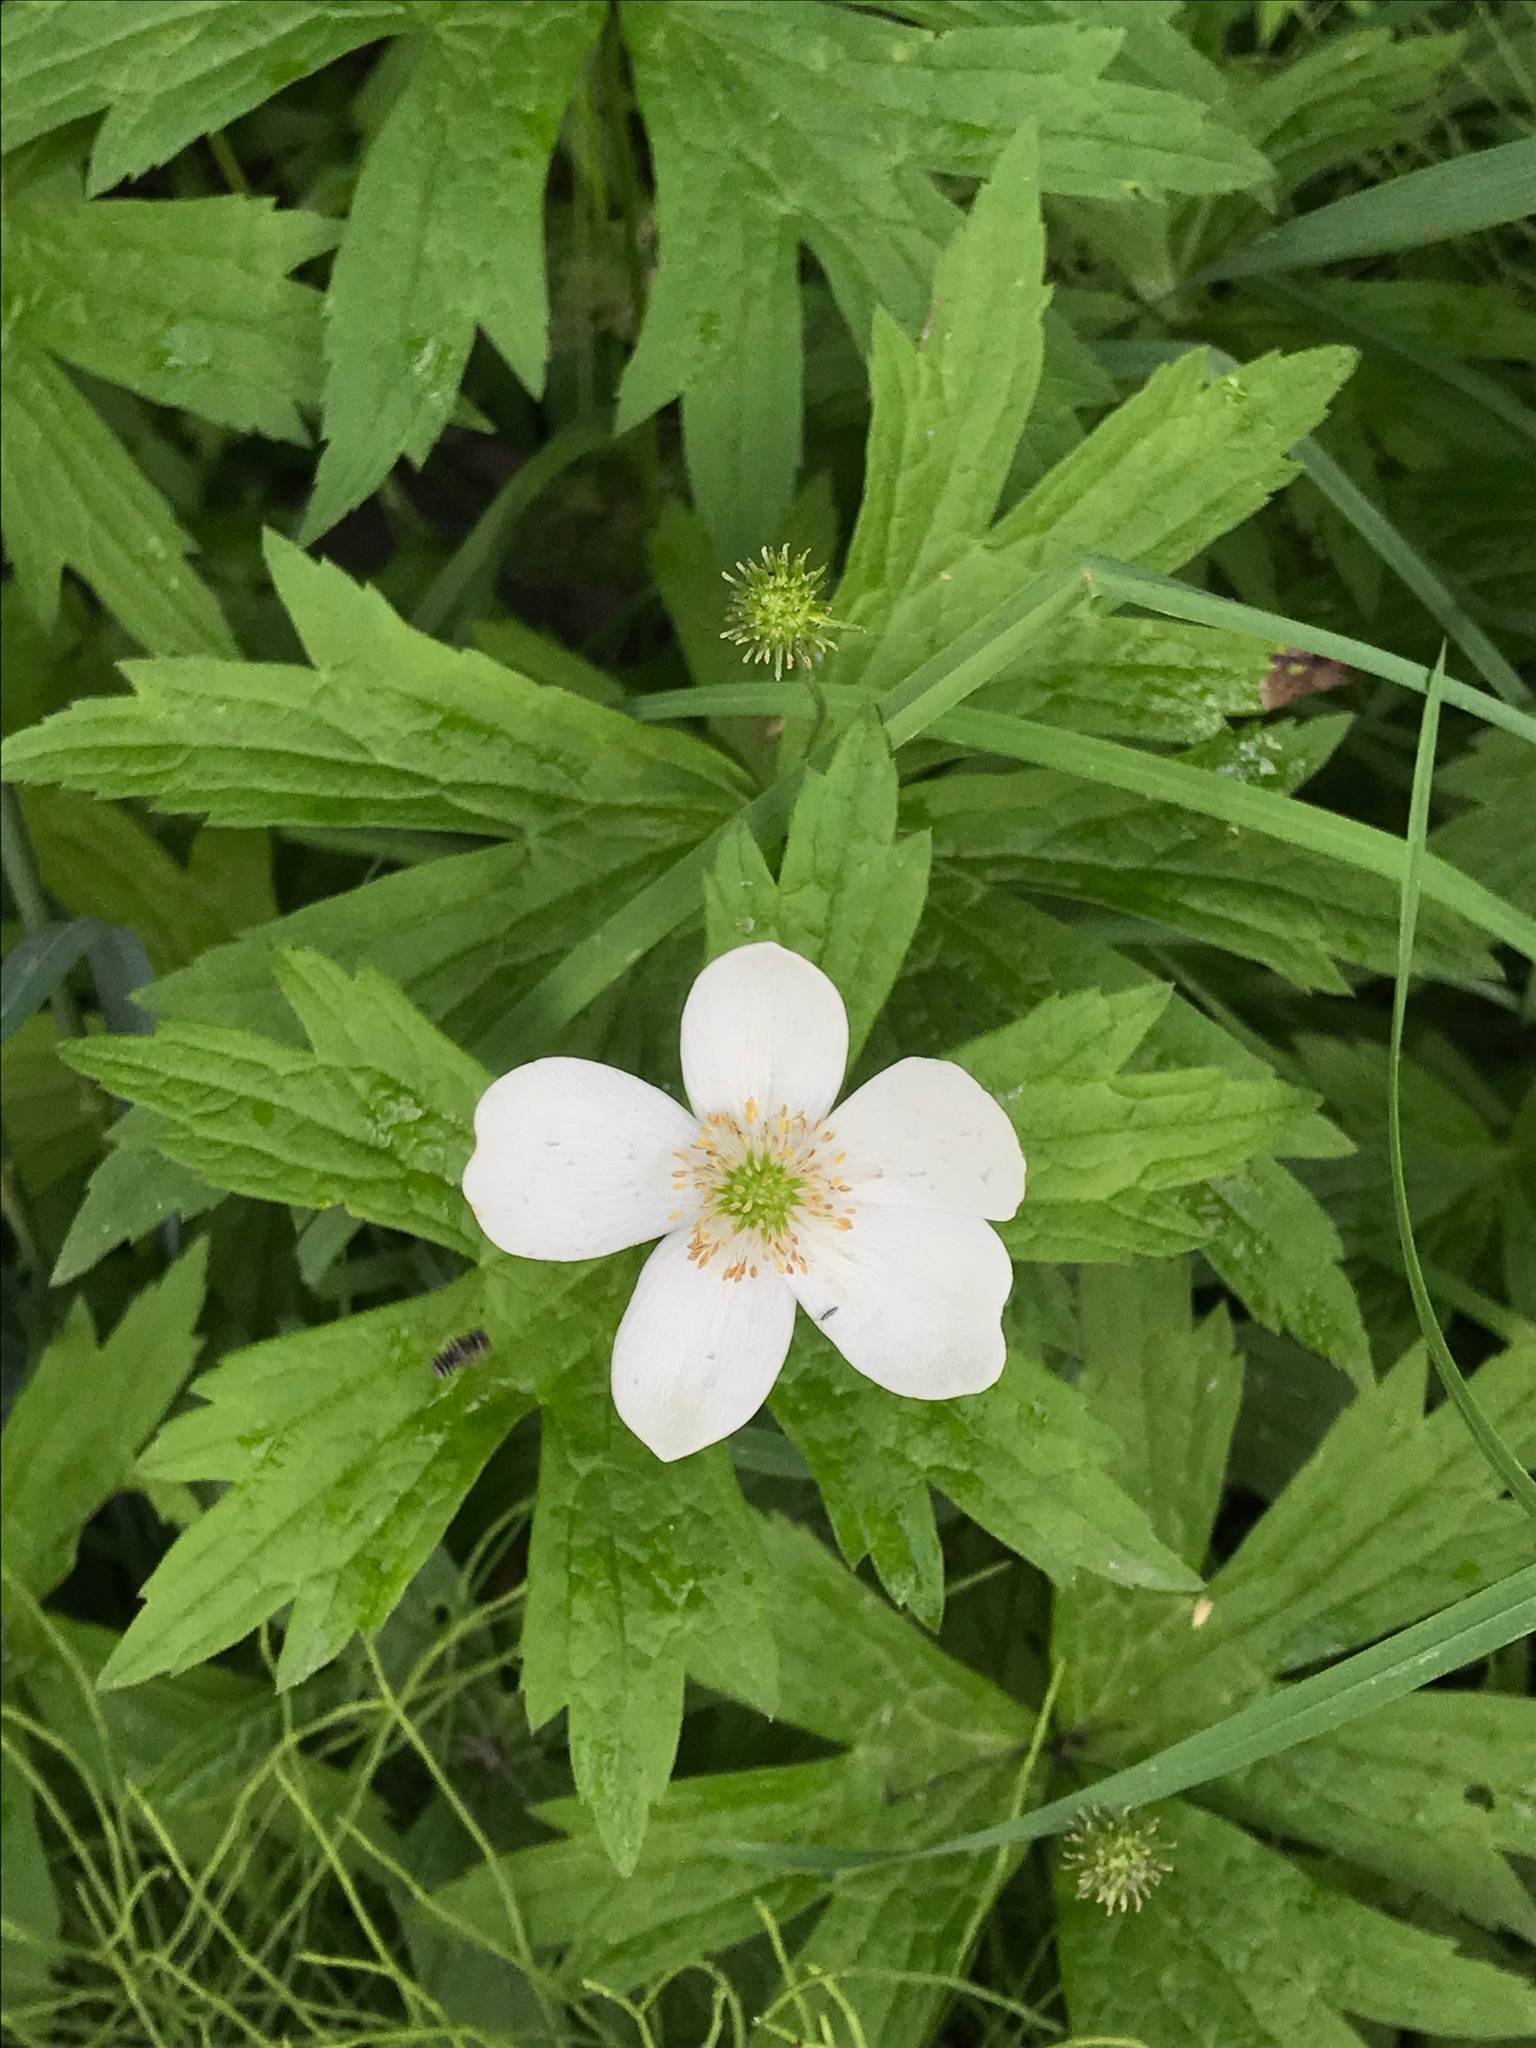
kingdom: Plantae
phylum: Tracheophyta
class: Magnoliopsida
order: Ranunculales
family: Ranunculaceae
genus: Anemonastrum
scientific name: Anemonastrum canadense
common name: Canada anemone
